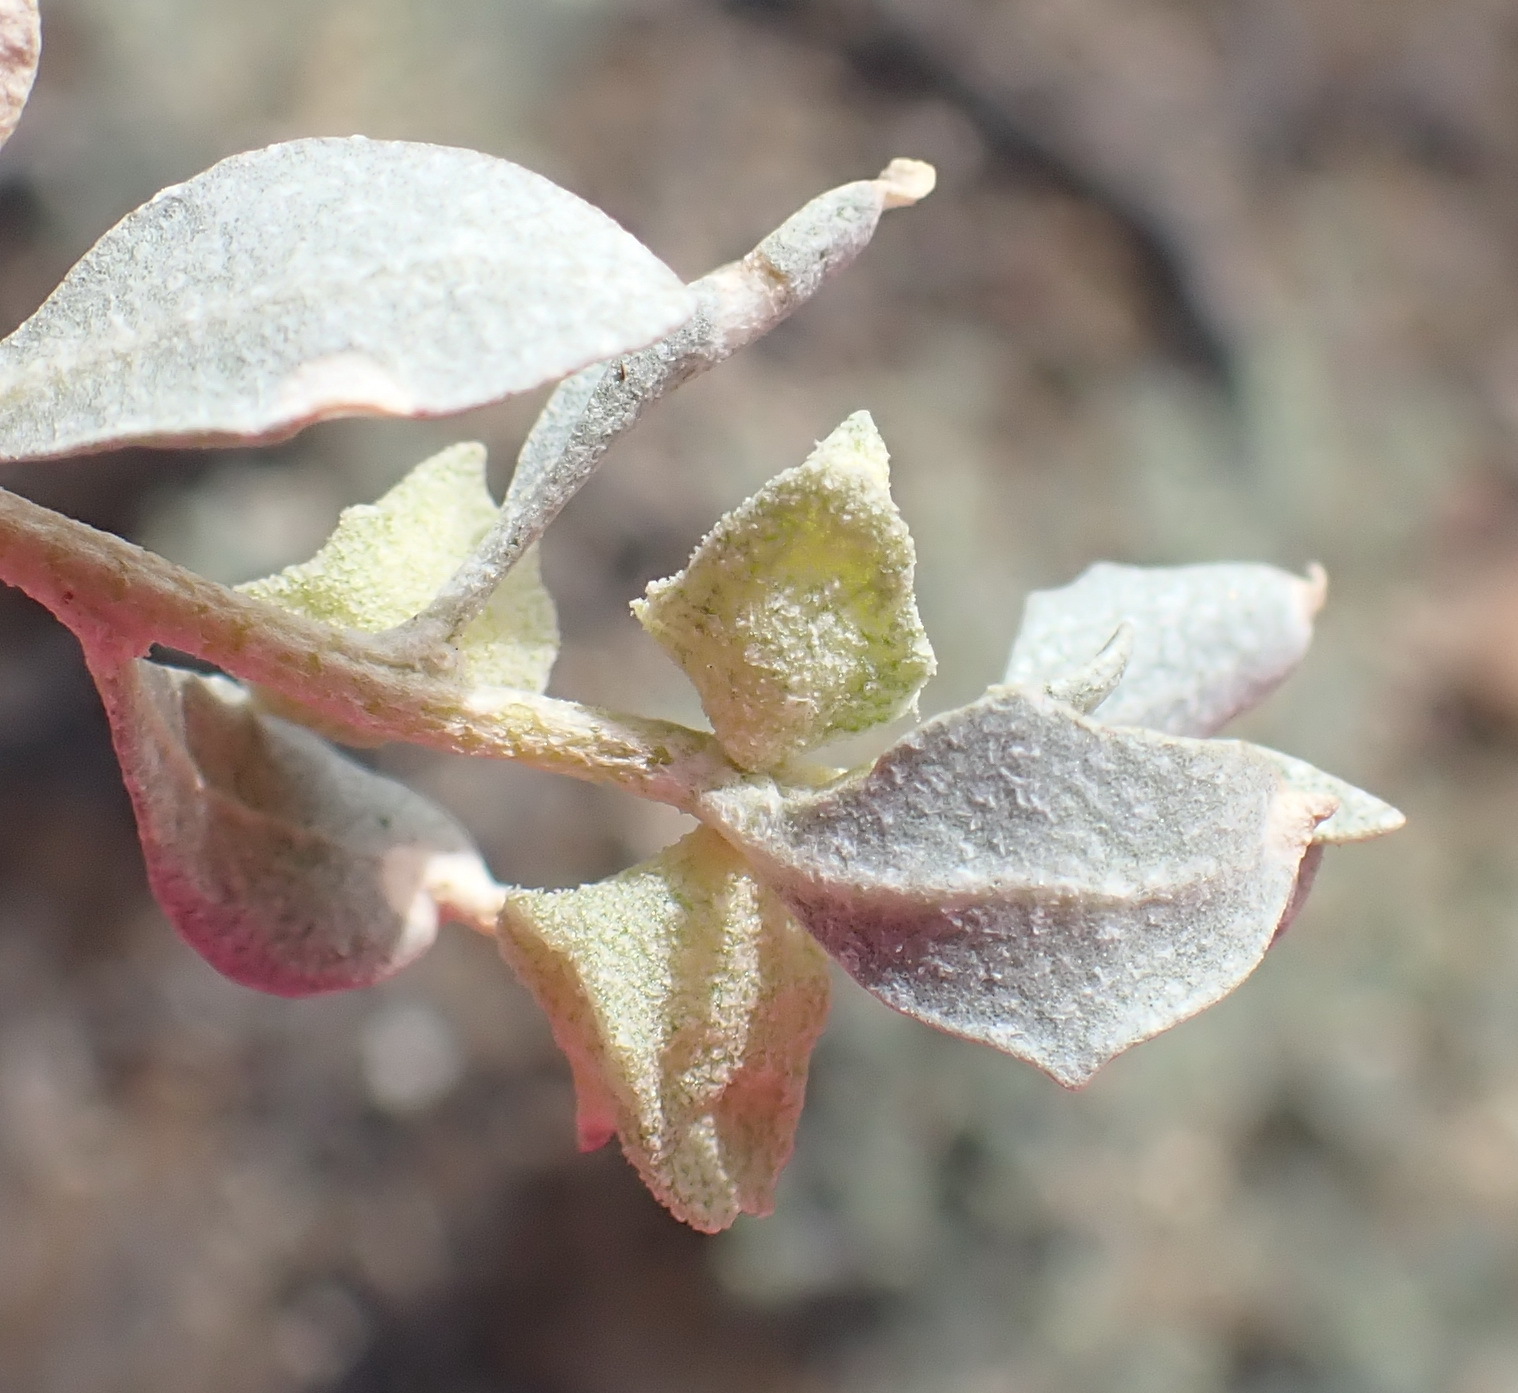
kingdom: Plantae
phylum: Tracheophyta
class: Magnoliopsida
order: Caryophyllales
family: Amaranthaceae
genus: Atriplex
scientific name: Atriplex lindleyi
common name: Lindley's saltbush
